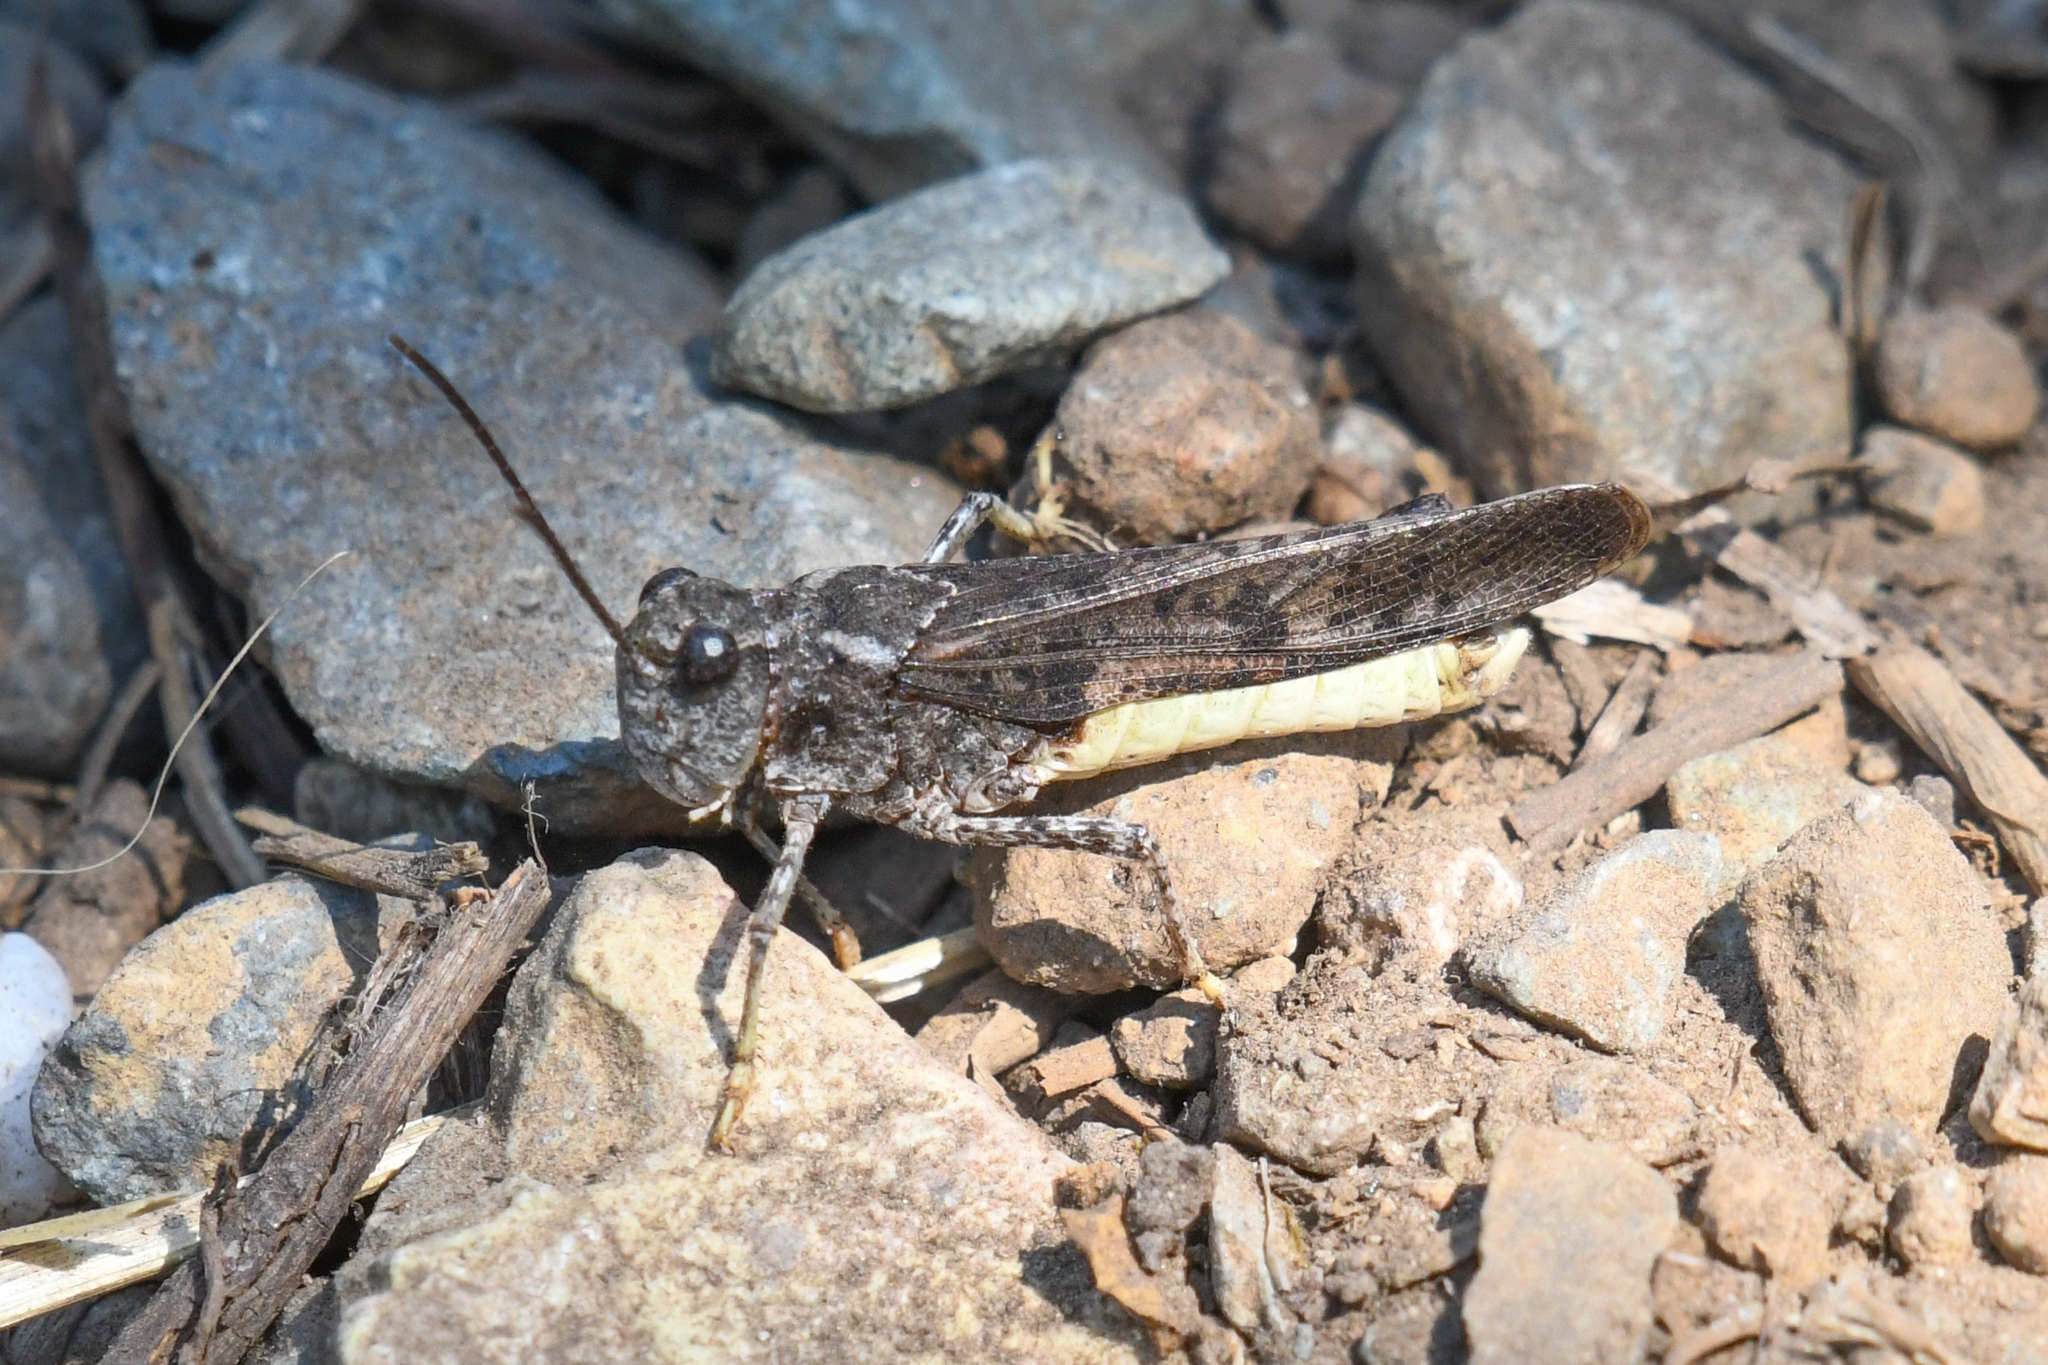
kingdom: Animalia
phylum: Arthropoda
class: Insecta
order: Orthoptera
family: Acrididae
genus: Trimerotropis
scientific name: Trimerotropis verruculata
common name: Crackling forest grasshopper
